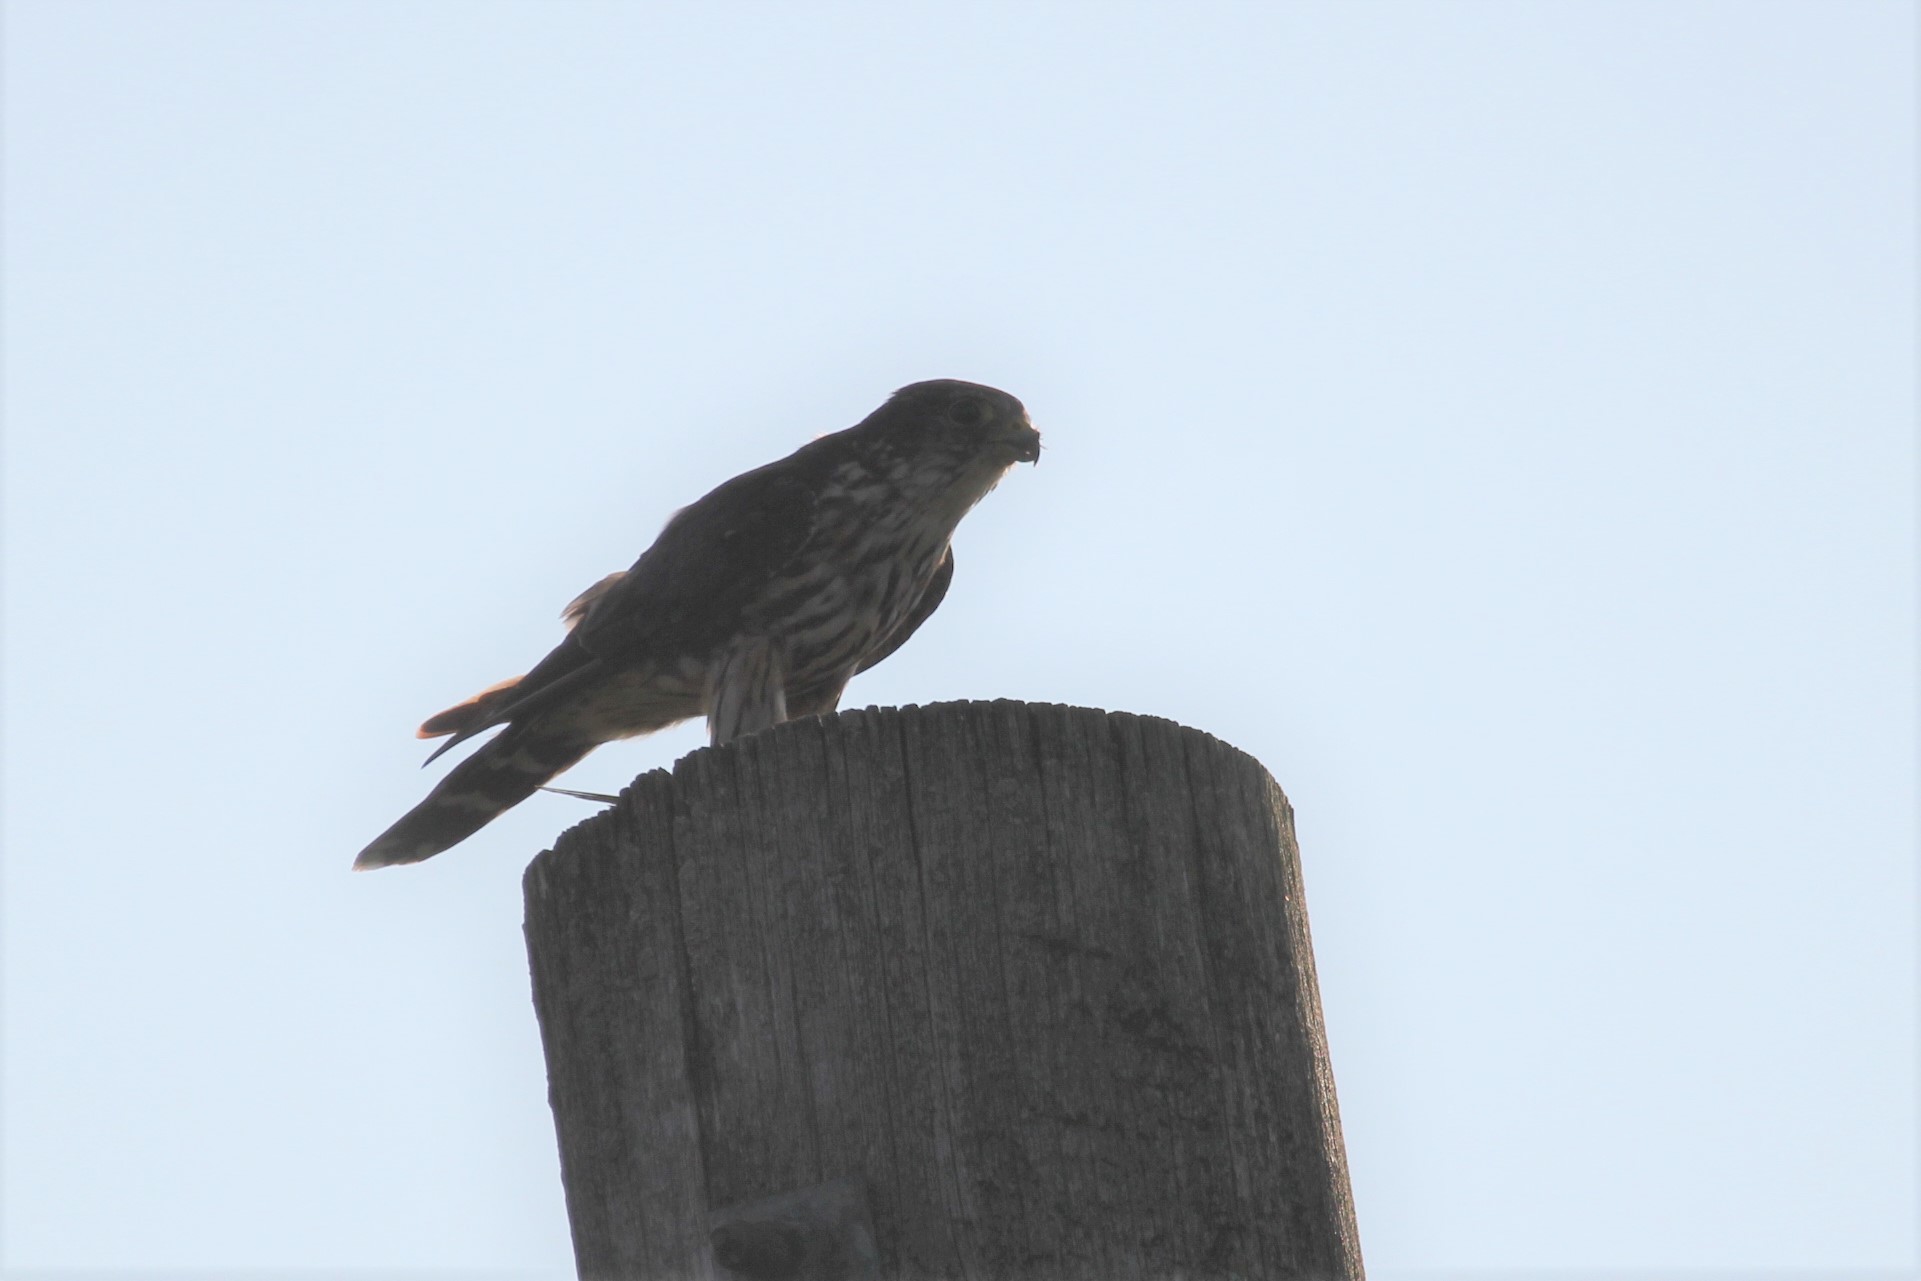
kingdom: Animalia
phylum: Chordata
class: Aves
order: Falconiformes
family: Falconidae
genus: Falco
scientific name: Falco columbarius
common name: Merlin
